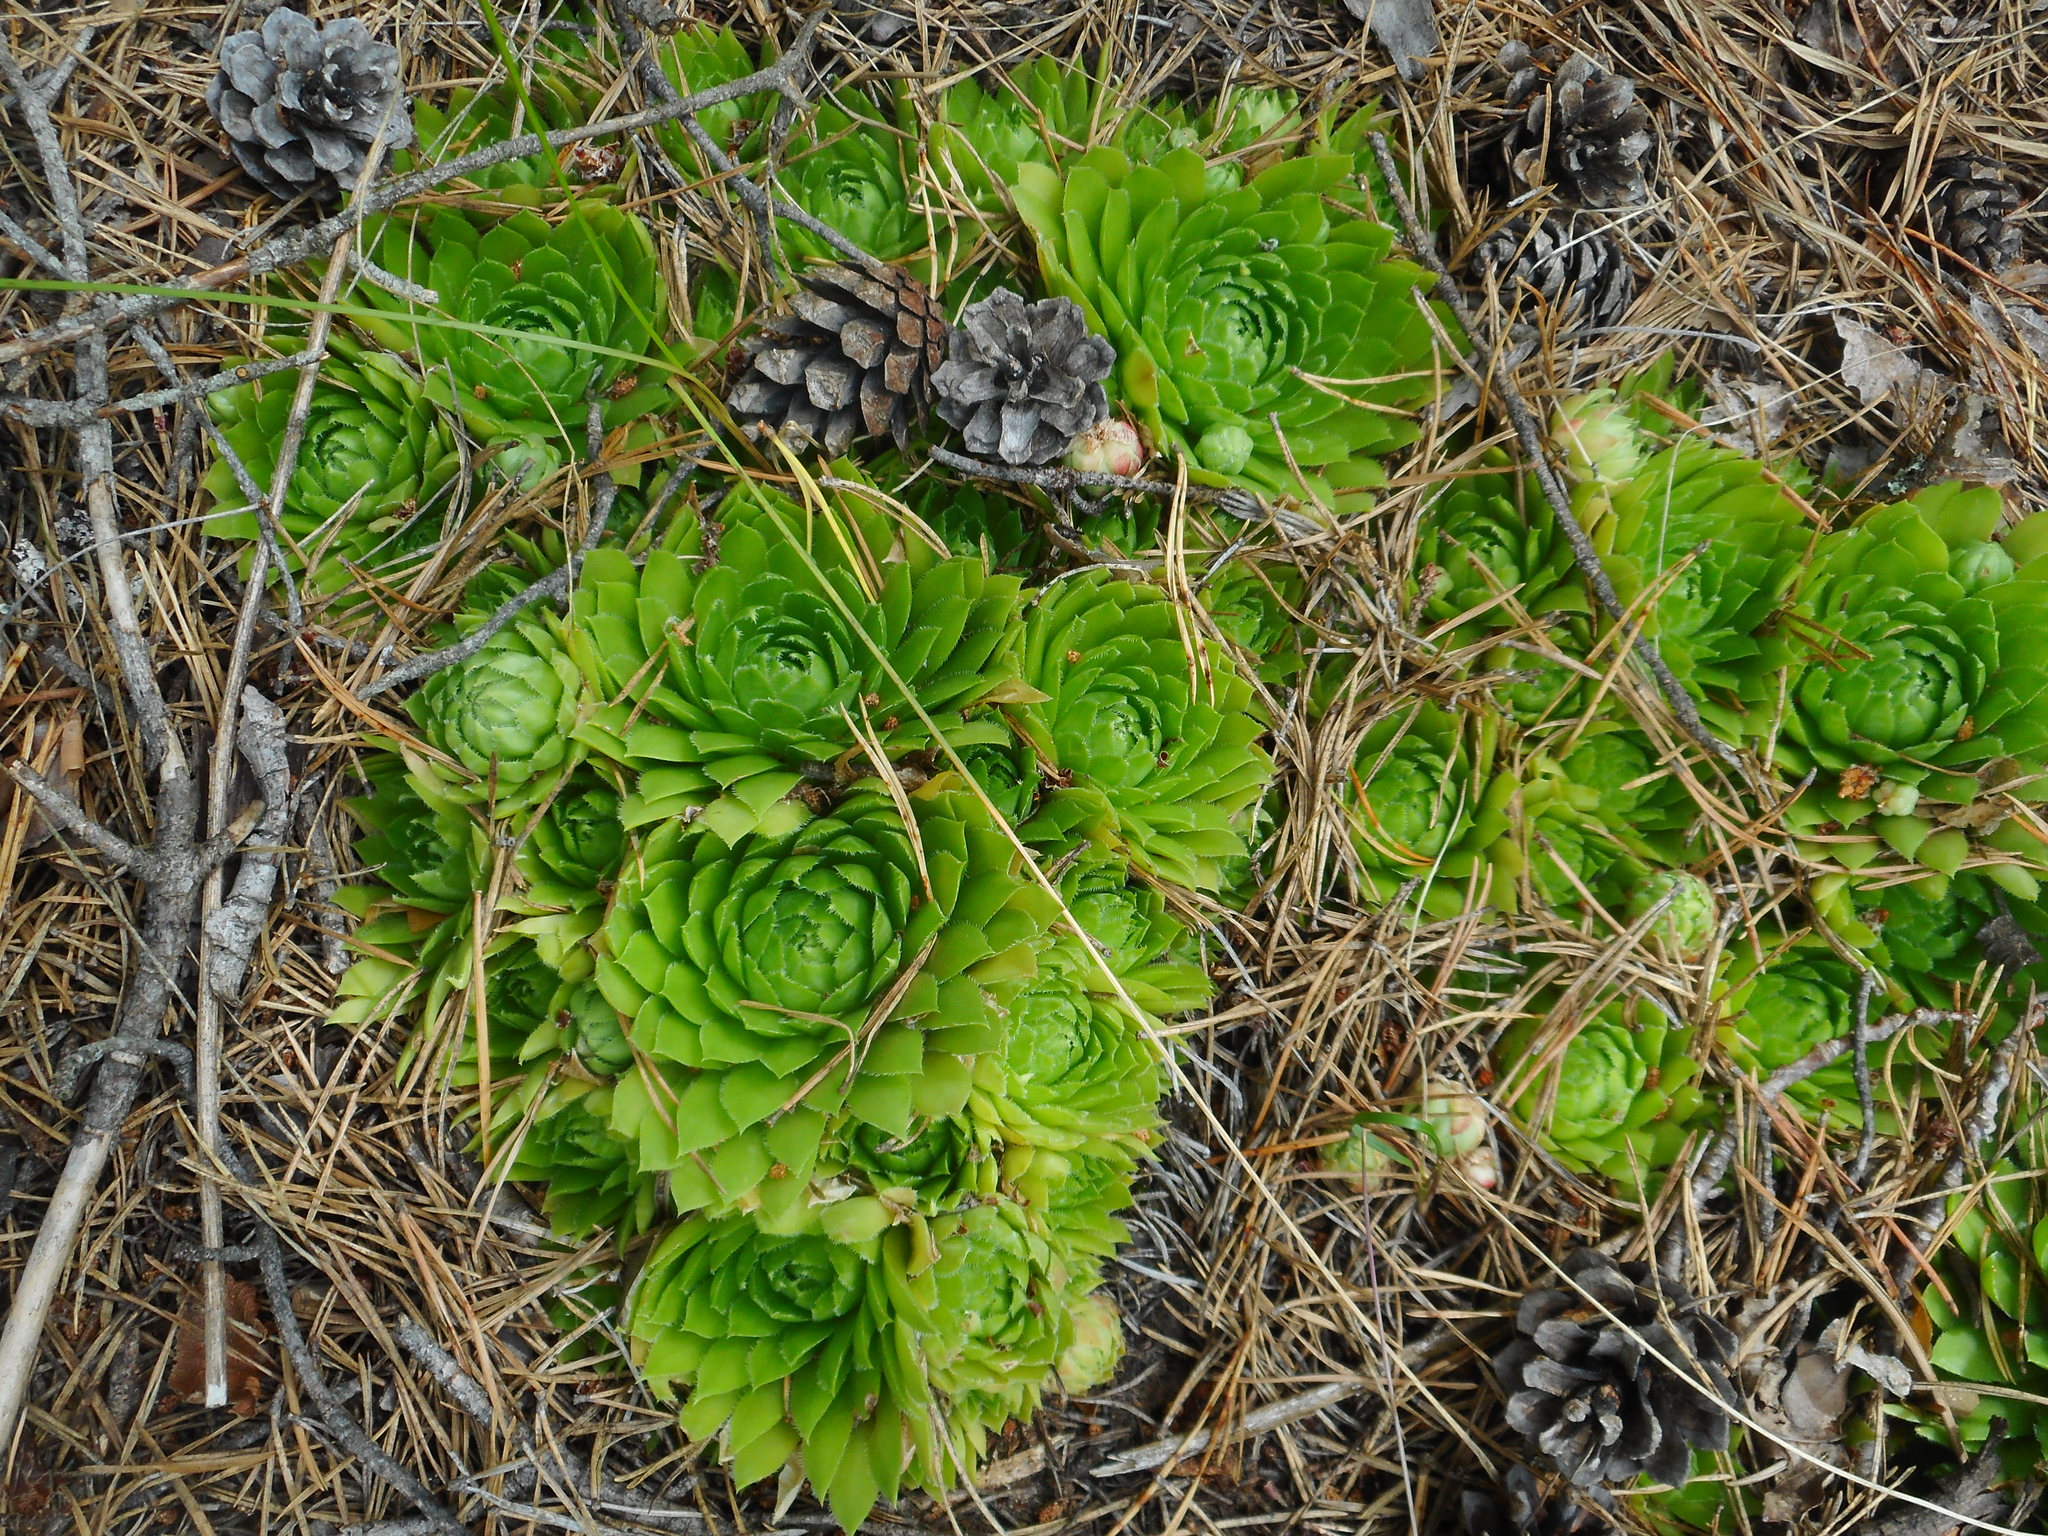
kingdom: Plantae
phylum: Tracheophyta
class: Magnoliopsida
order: Saxifragales
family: Crassulaceae
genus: Sempervivum
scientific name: Sempervivum globiferum
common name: Rolling hen-and-chicks
